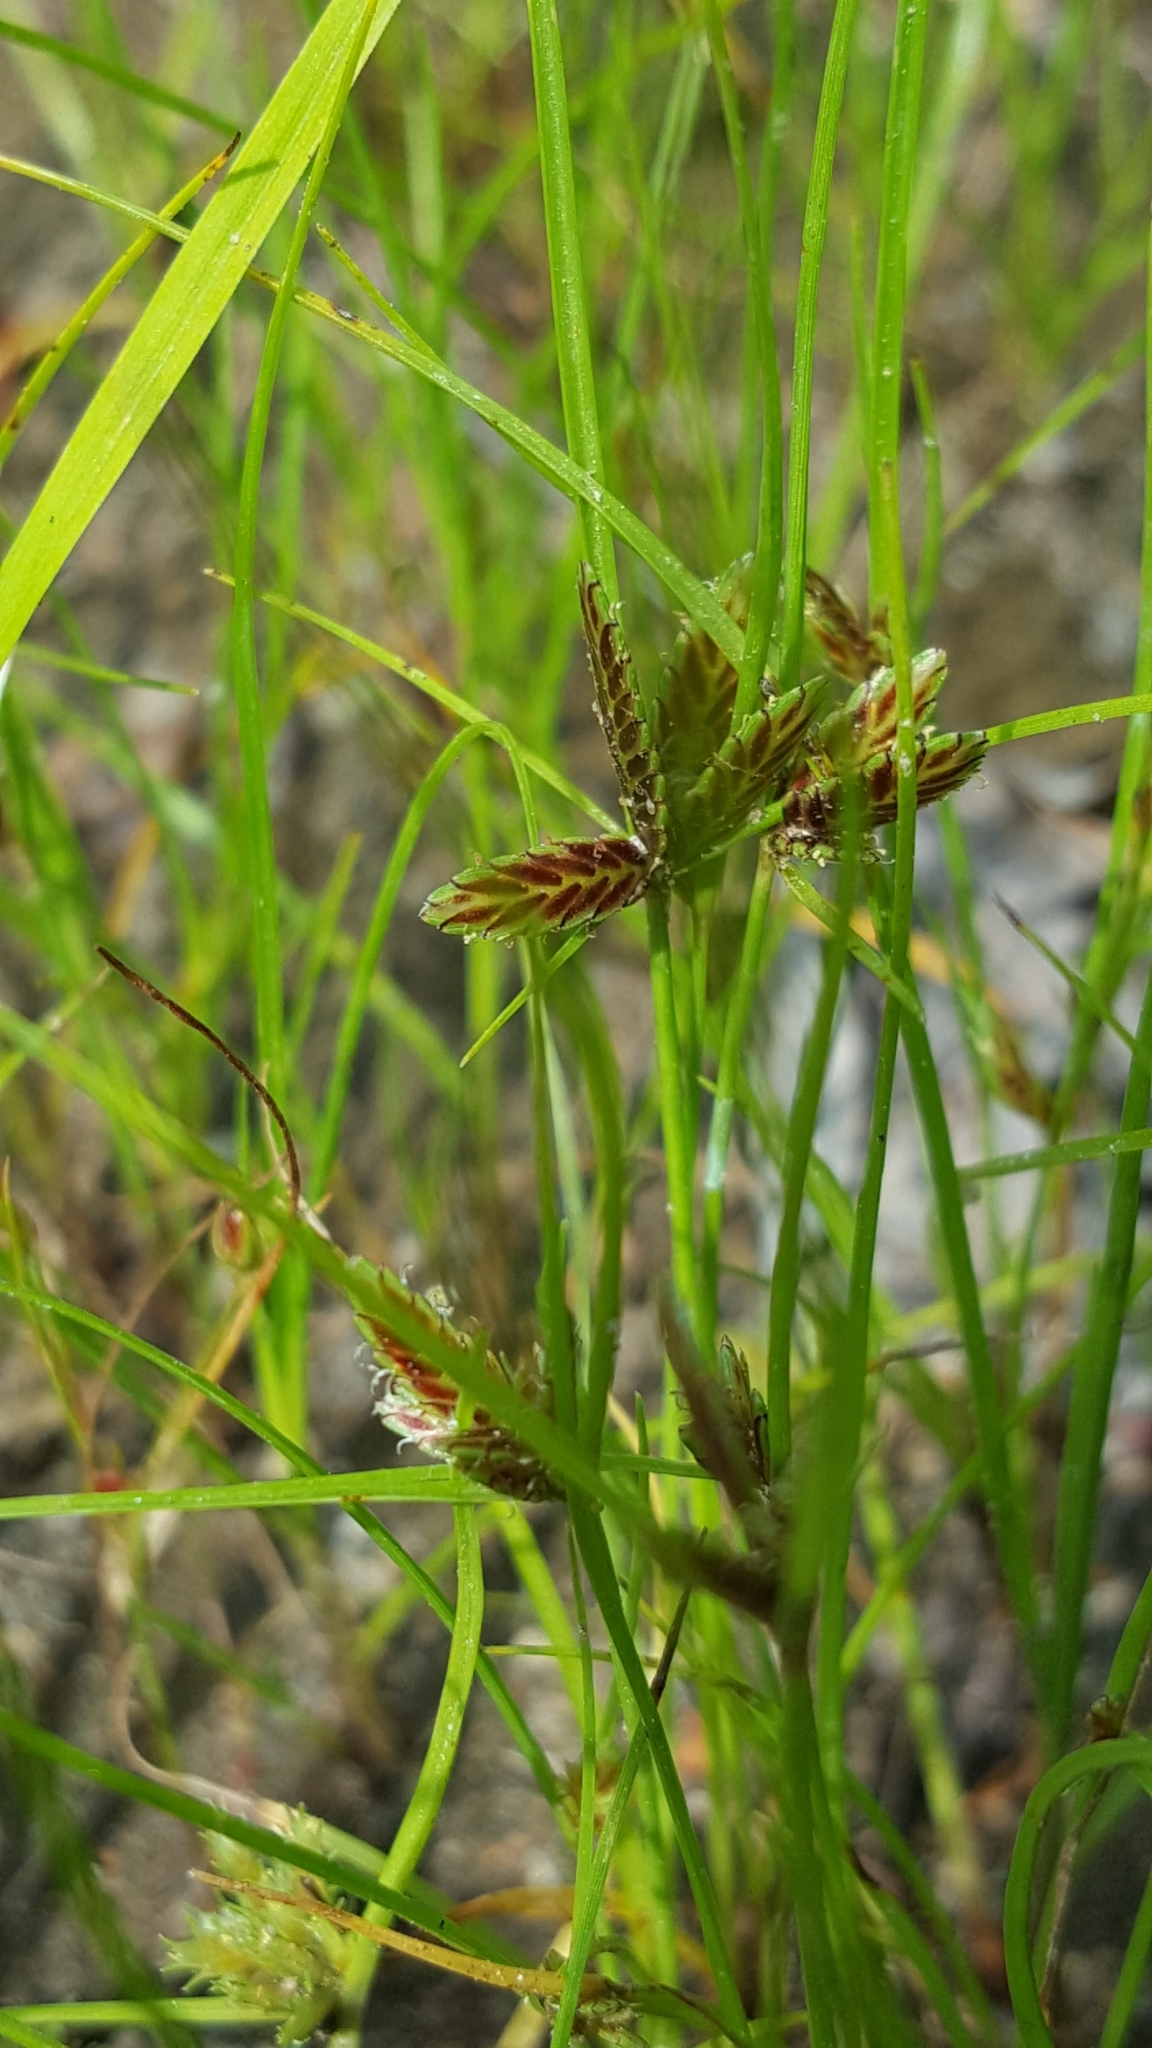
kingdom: Plantae
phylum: Tracheophyta
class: Liliopsida
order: Poales
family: Cyperaceae
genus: Cyperus
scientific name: Cyperus bipartitus
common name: Brook flatsedge
